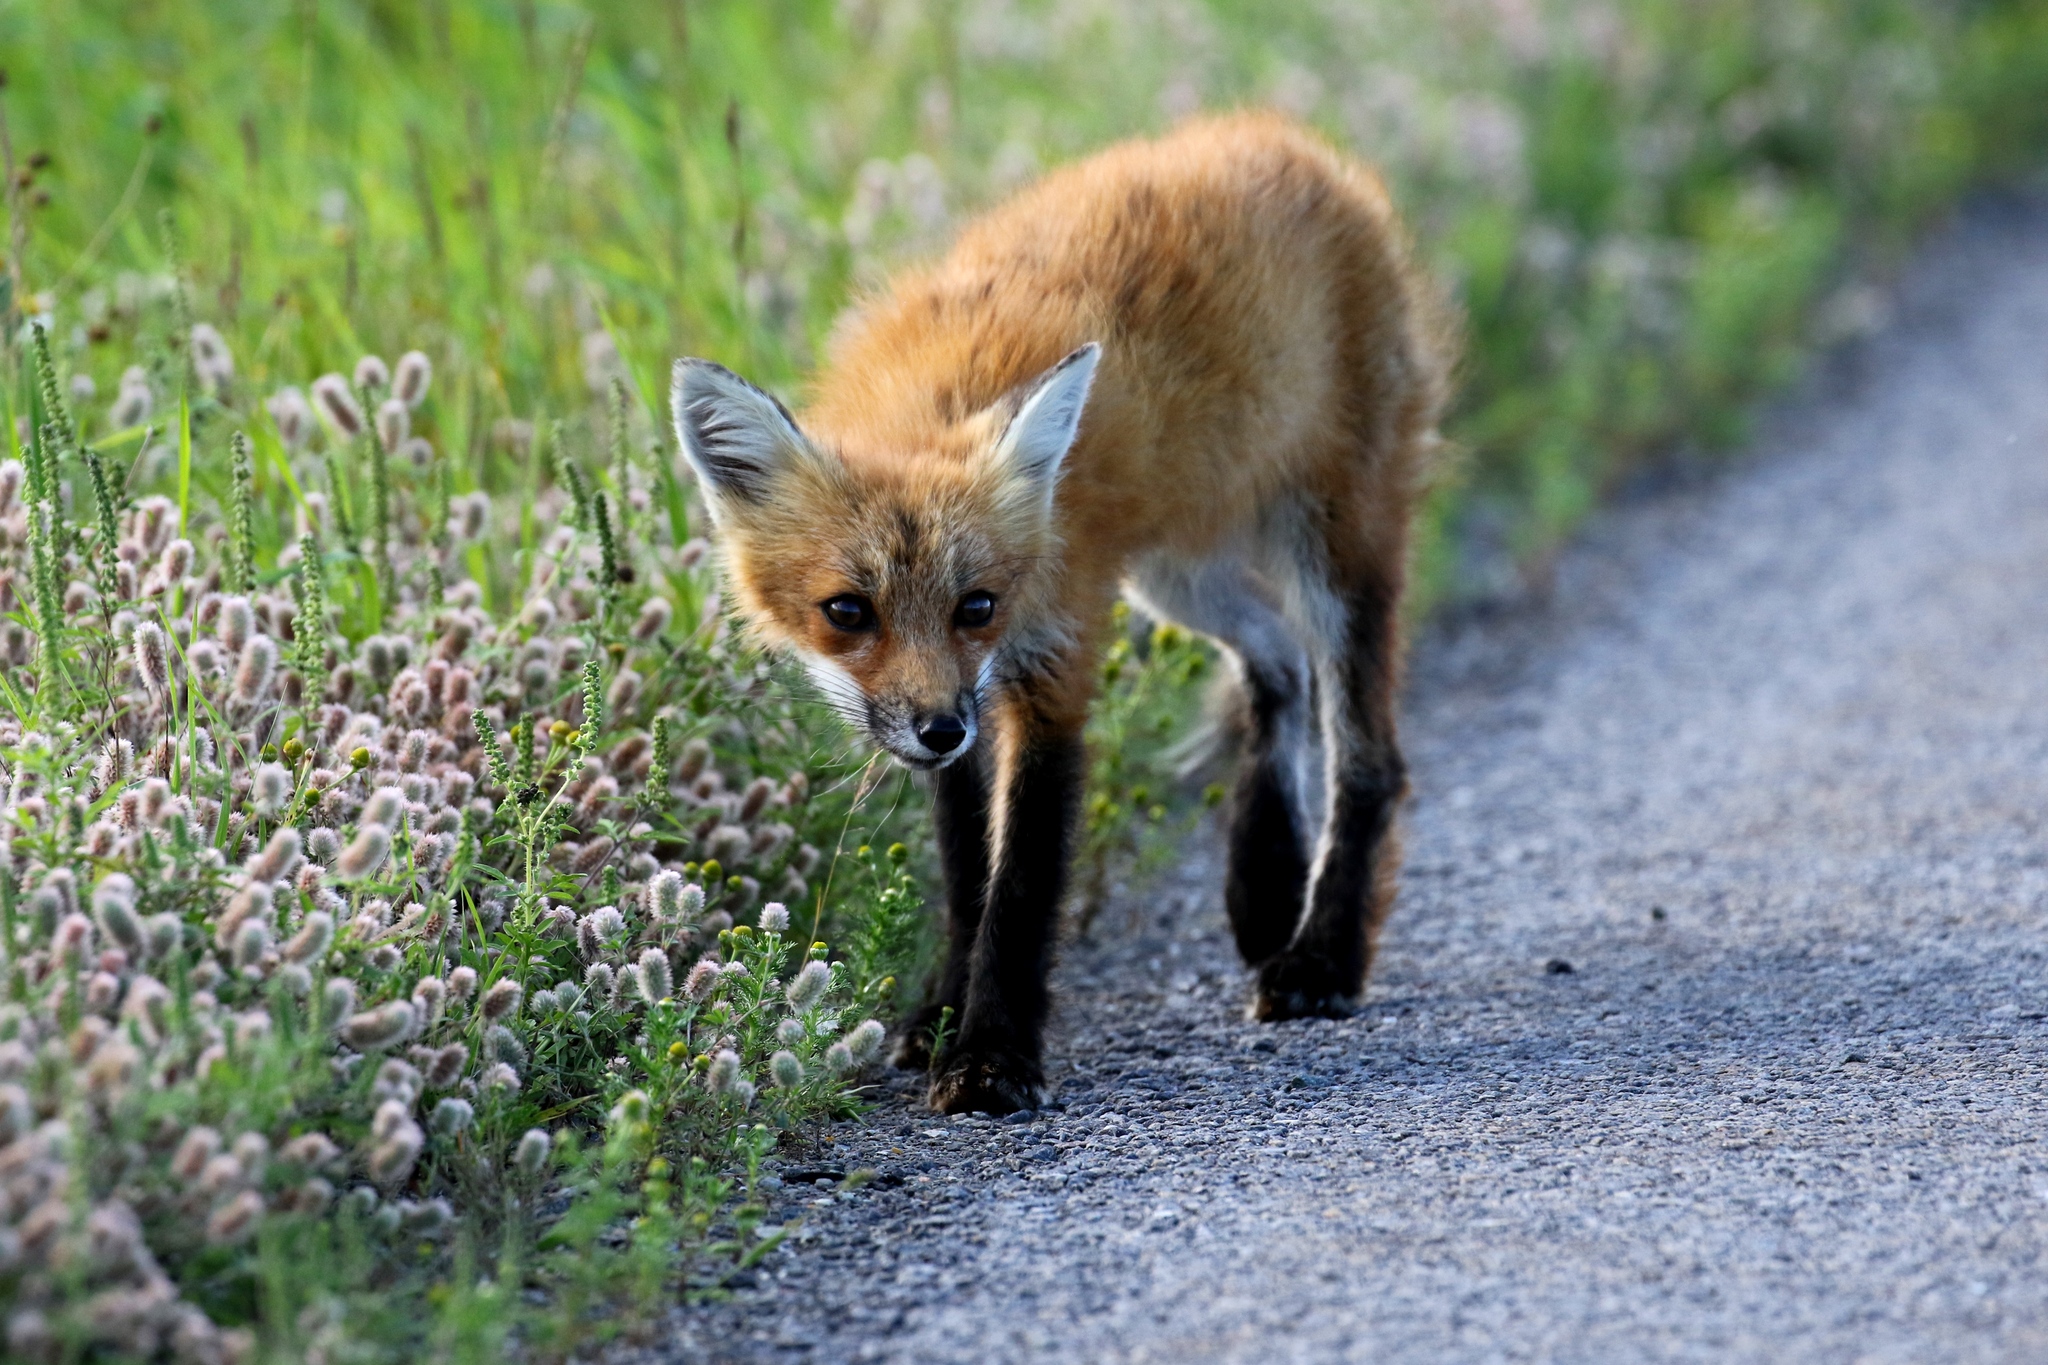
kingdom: Animalia
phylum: Chordata
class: Mammalia
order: Carnivora
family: Canidae
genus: Vulpes
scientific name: Vulpes vulpes
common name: Red fox
